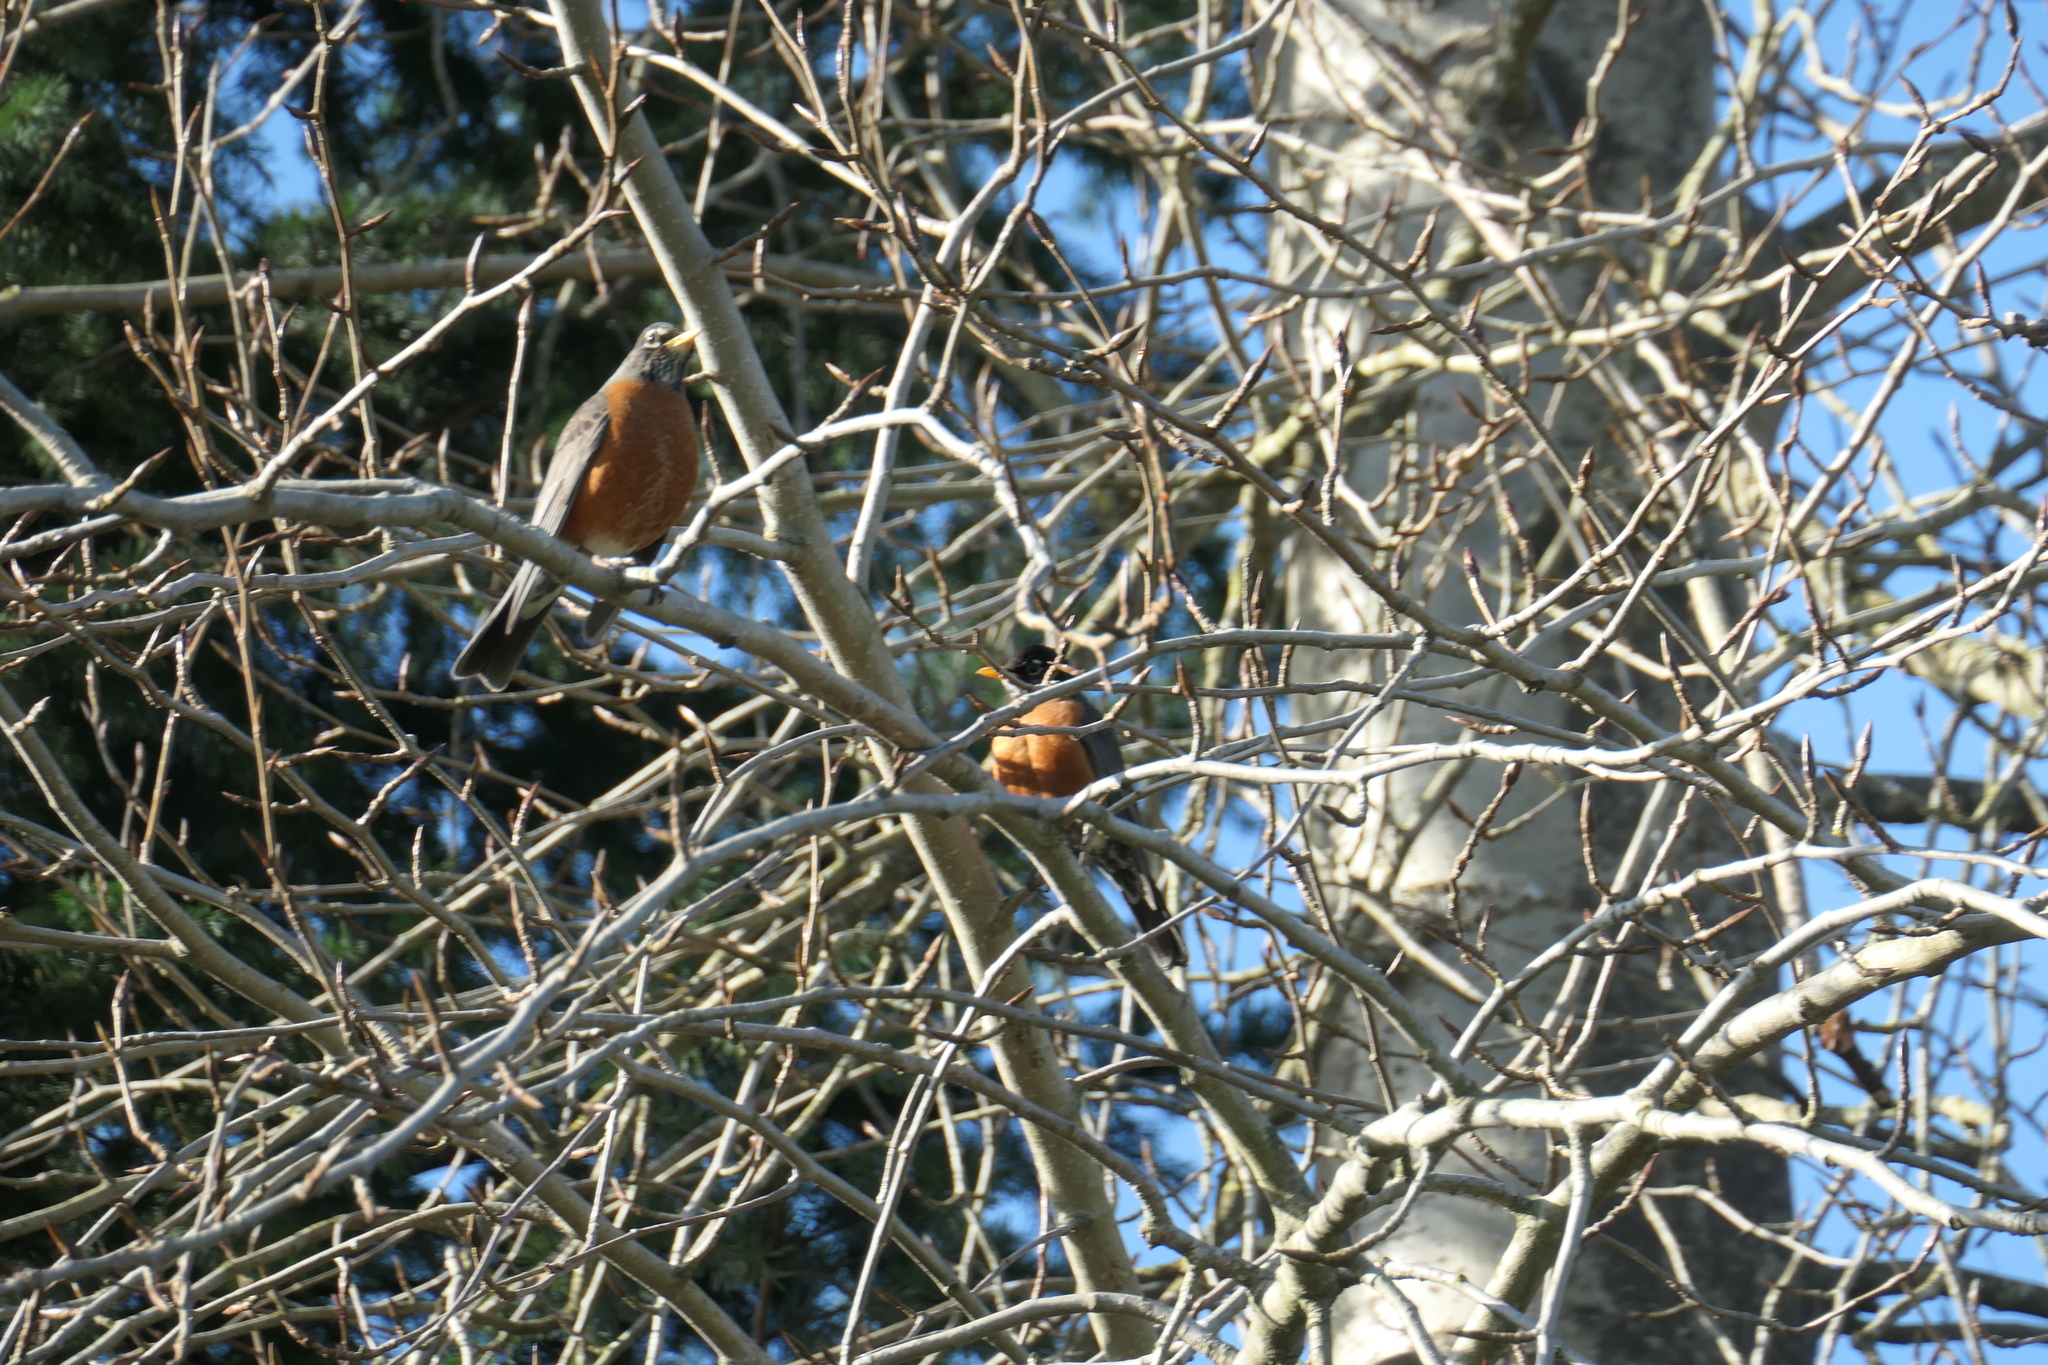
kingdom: Animalia
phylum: Chordata
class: Aves
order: Passeriformes
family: Turdidae
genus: Turdus
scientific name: Turdus migratorius
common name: American robin
